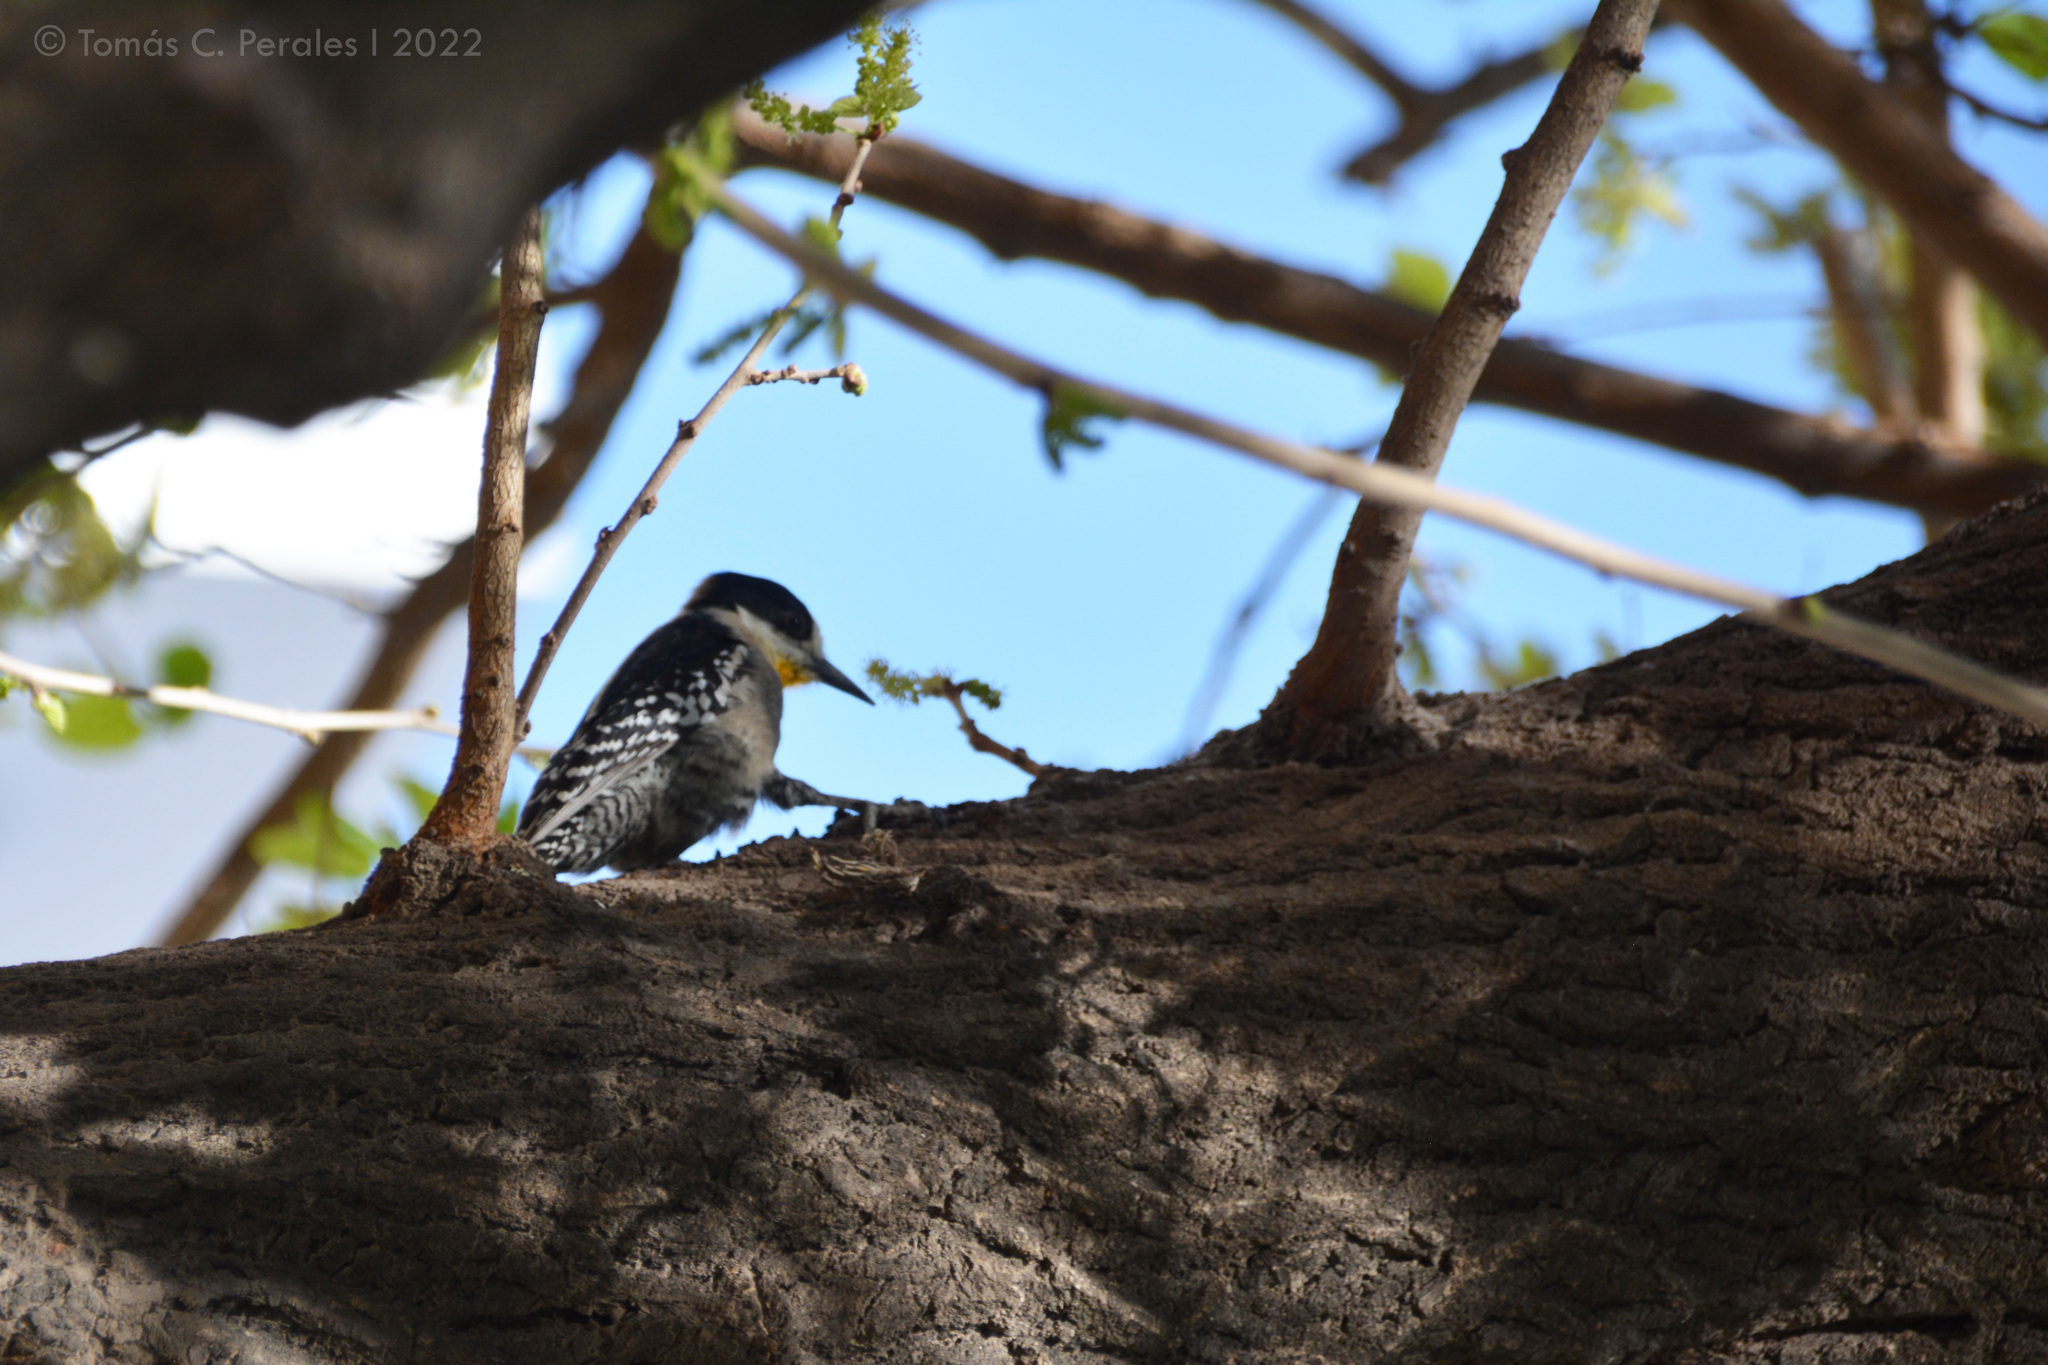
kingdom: Animalia
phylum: Chordata
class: Aves
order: Piciformes
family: Picidae
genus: Melanerpes
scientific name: Melanerpes cactorum
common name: White-fronted woodpecker
